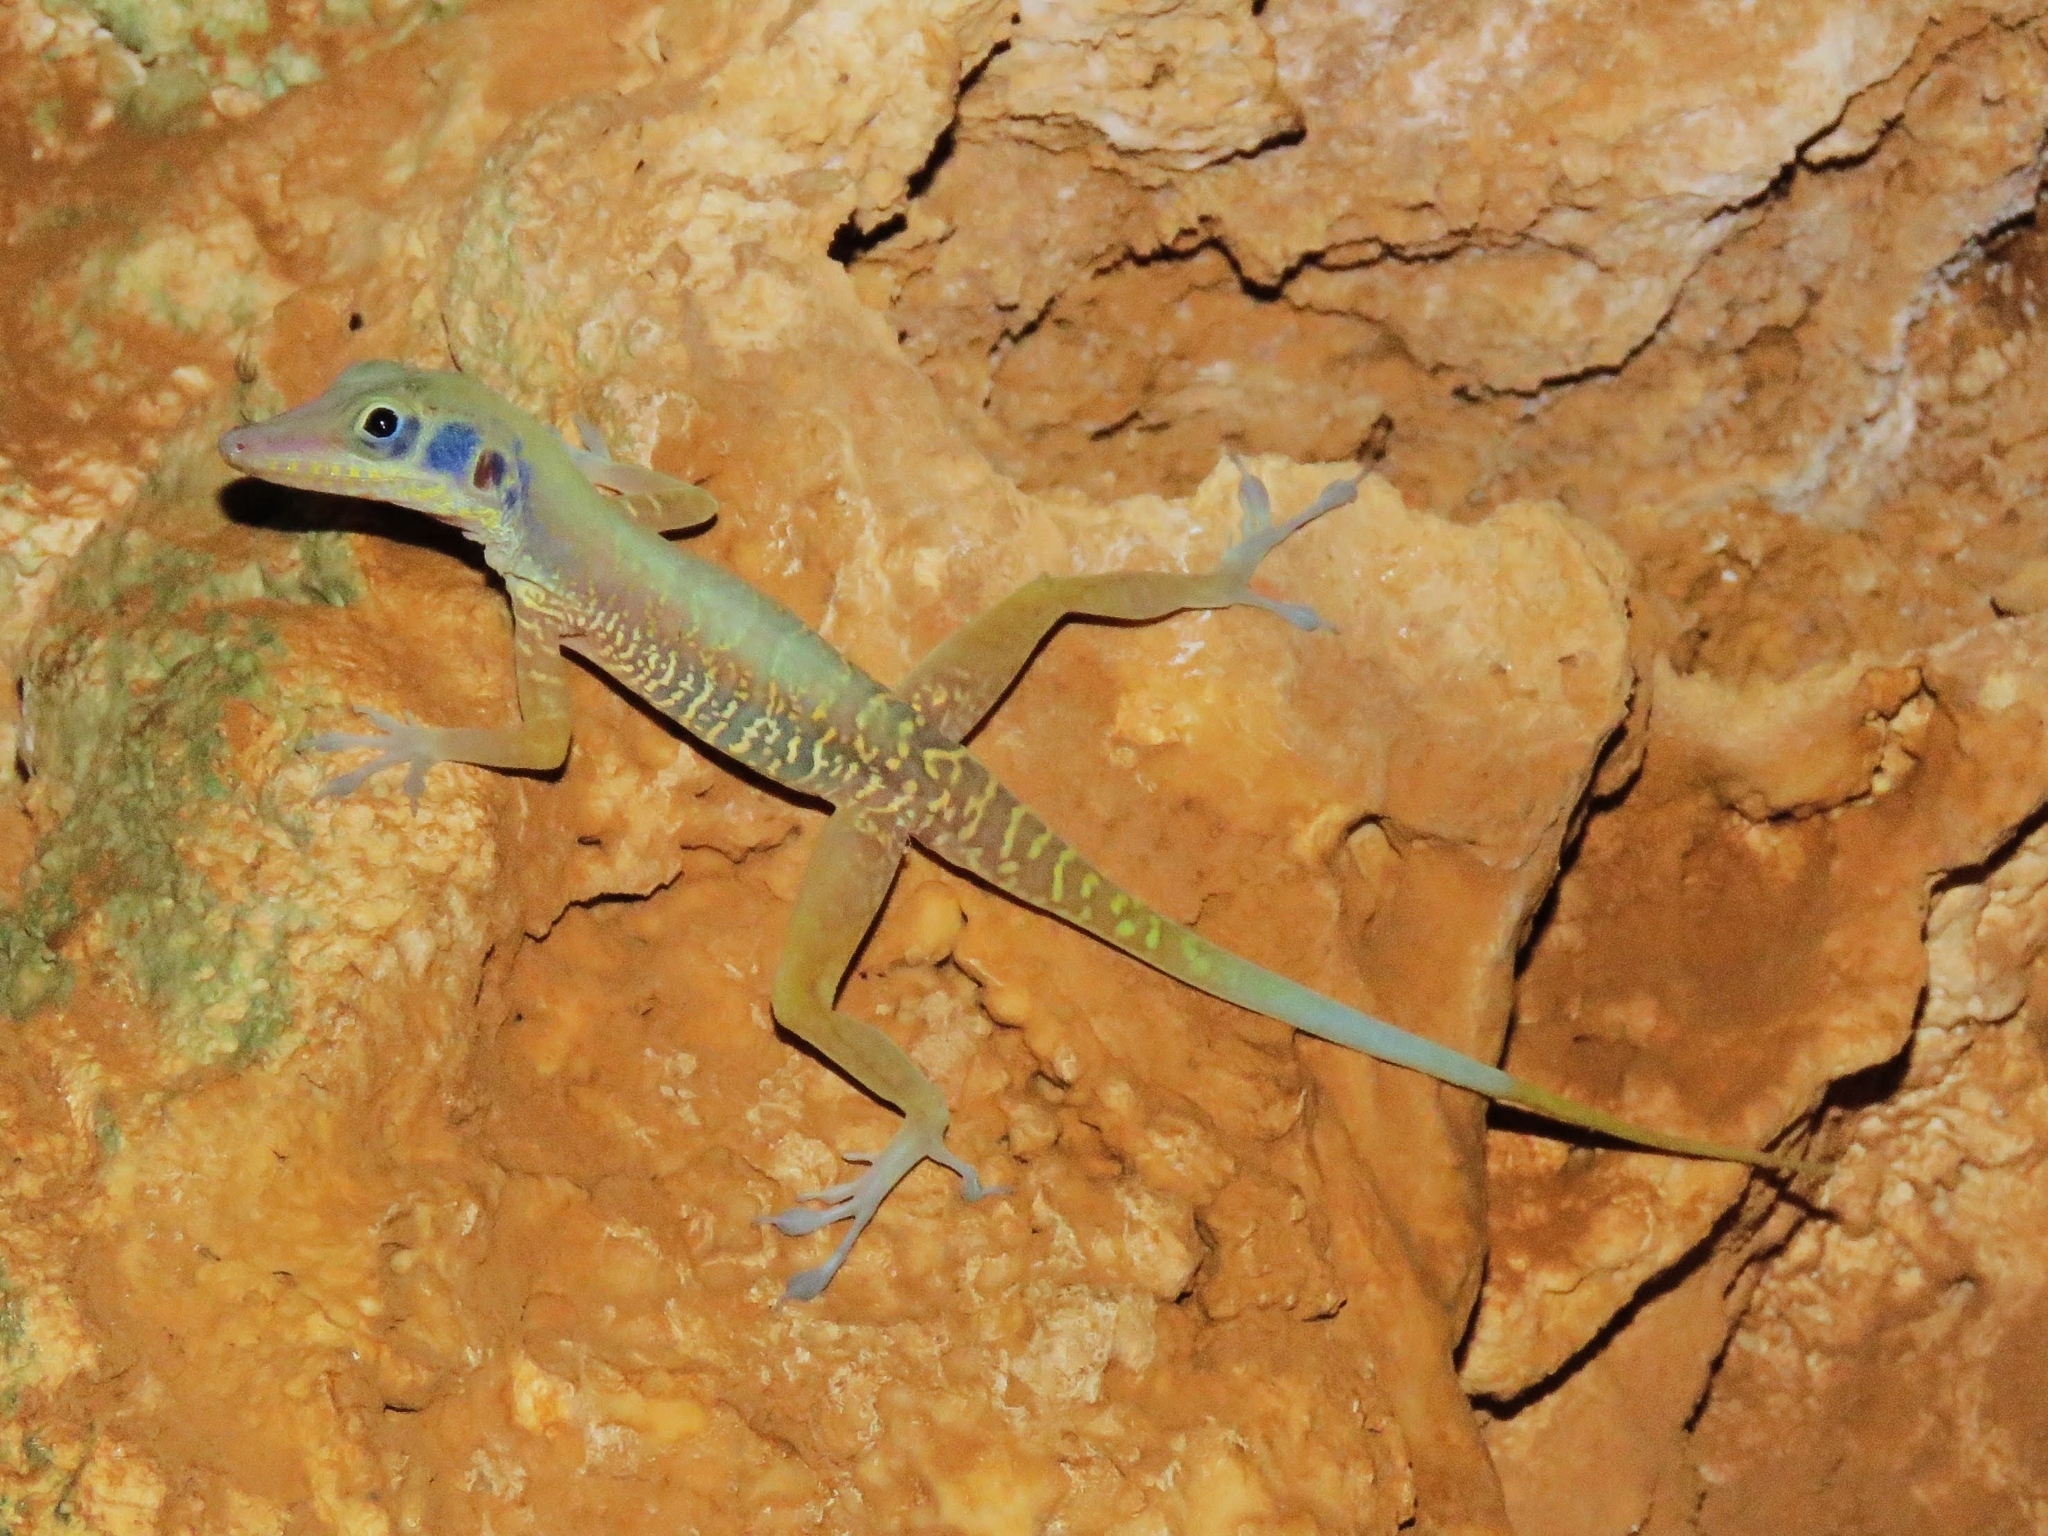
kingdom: Animalia
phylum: Chordata
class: Squamata
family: Dactyloidae
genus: Anolis
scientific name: Anolis bartschi
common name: West cuban anole
